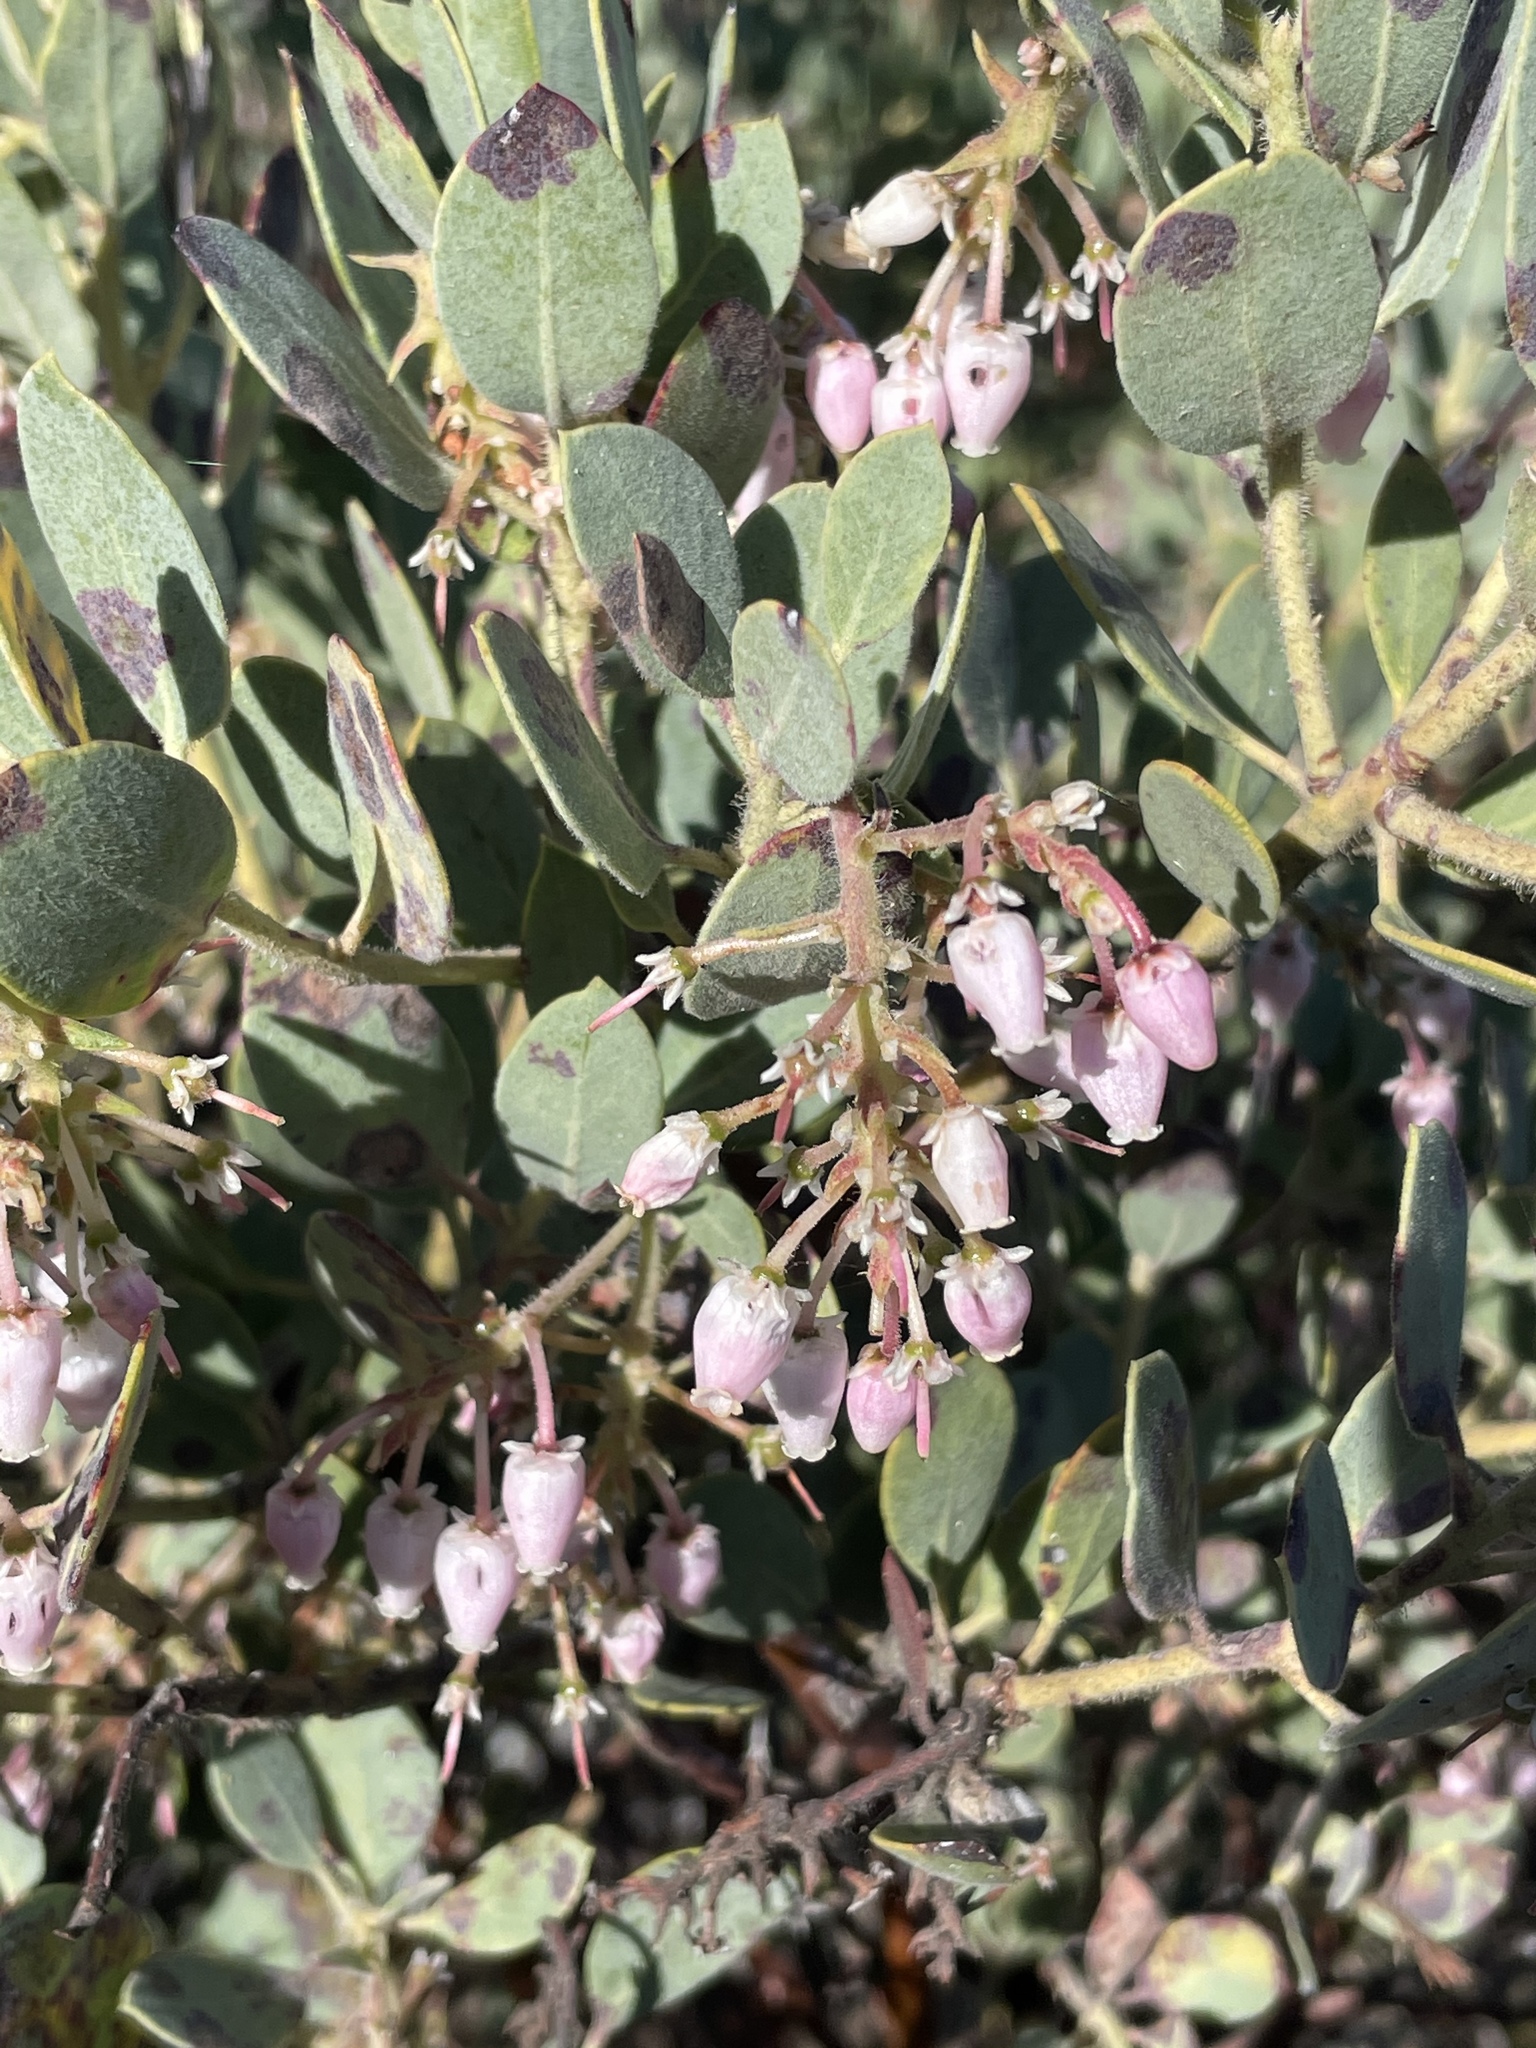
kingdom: Plantae
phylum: Tracheophyta
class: Magnoliopsida
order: Ericales
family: Ericaceae
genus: Arctostaphylos
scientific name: Arctostaphylos glandulosa
